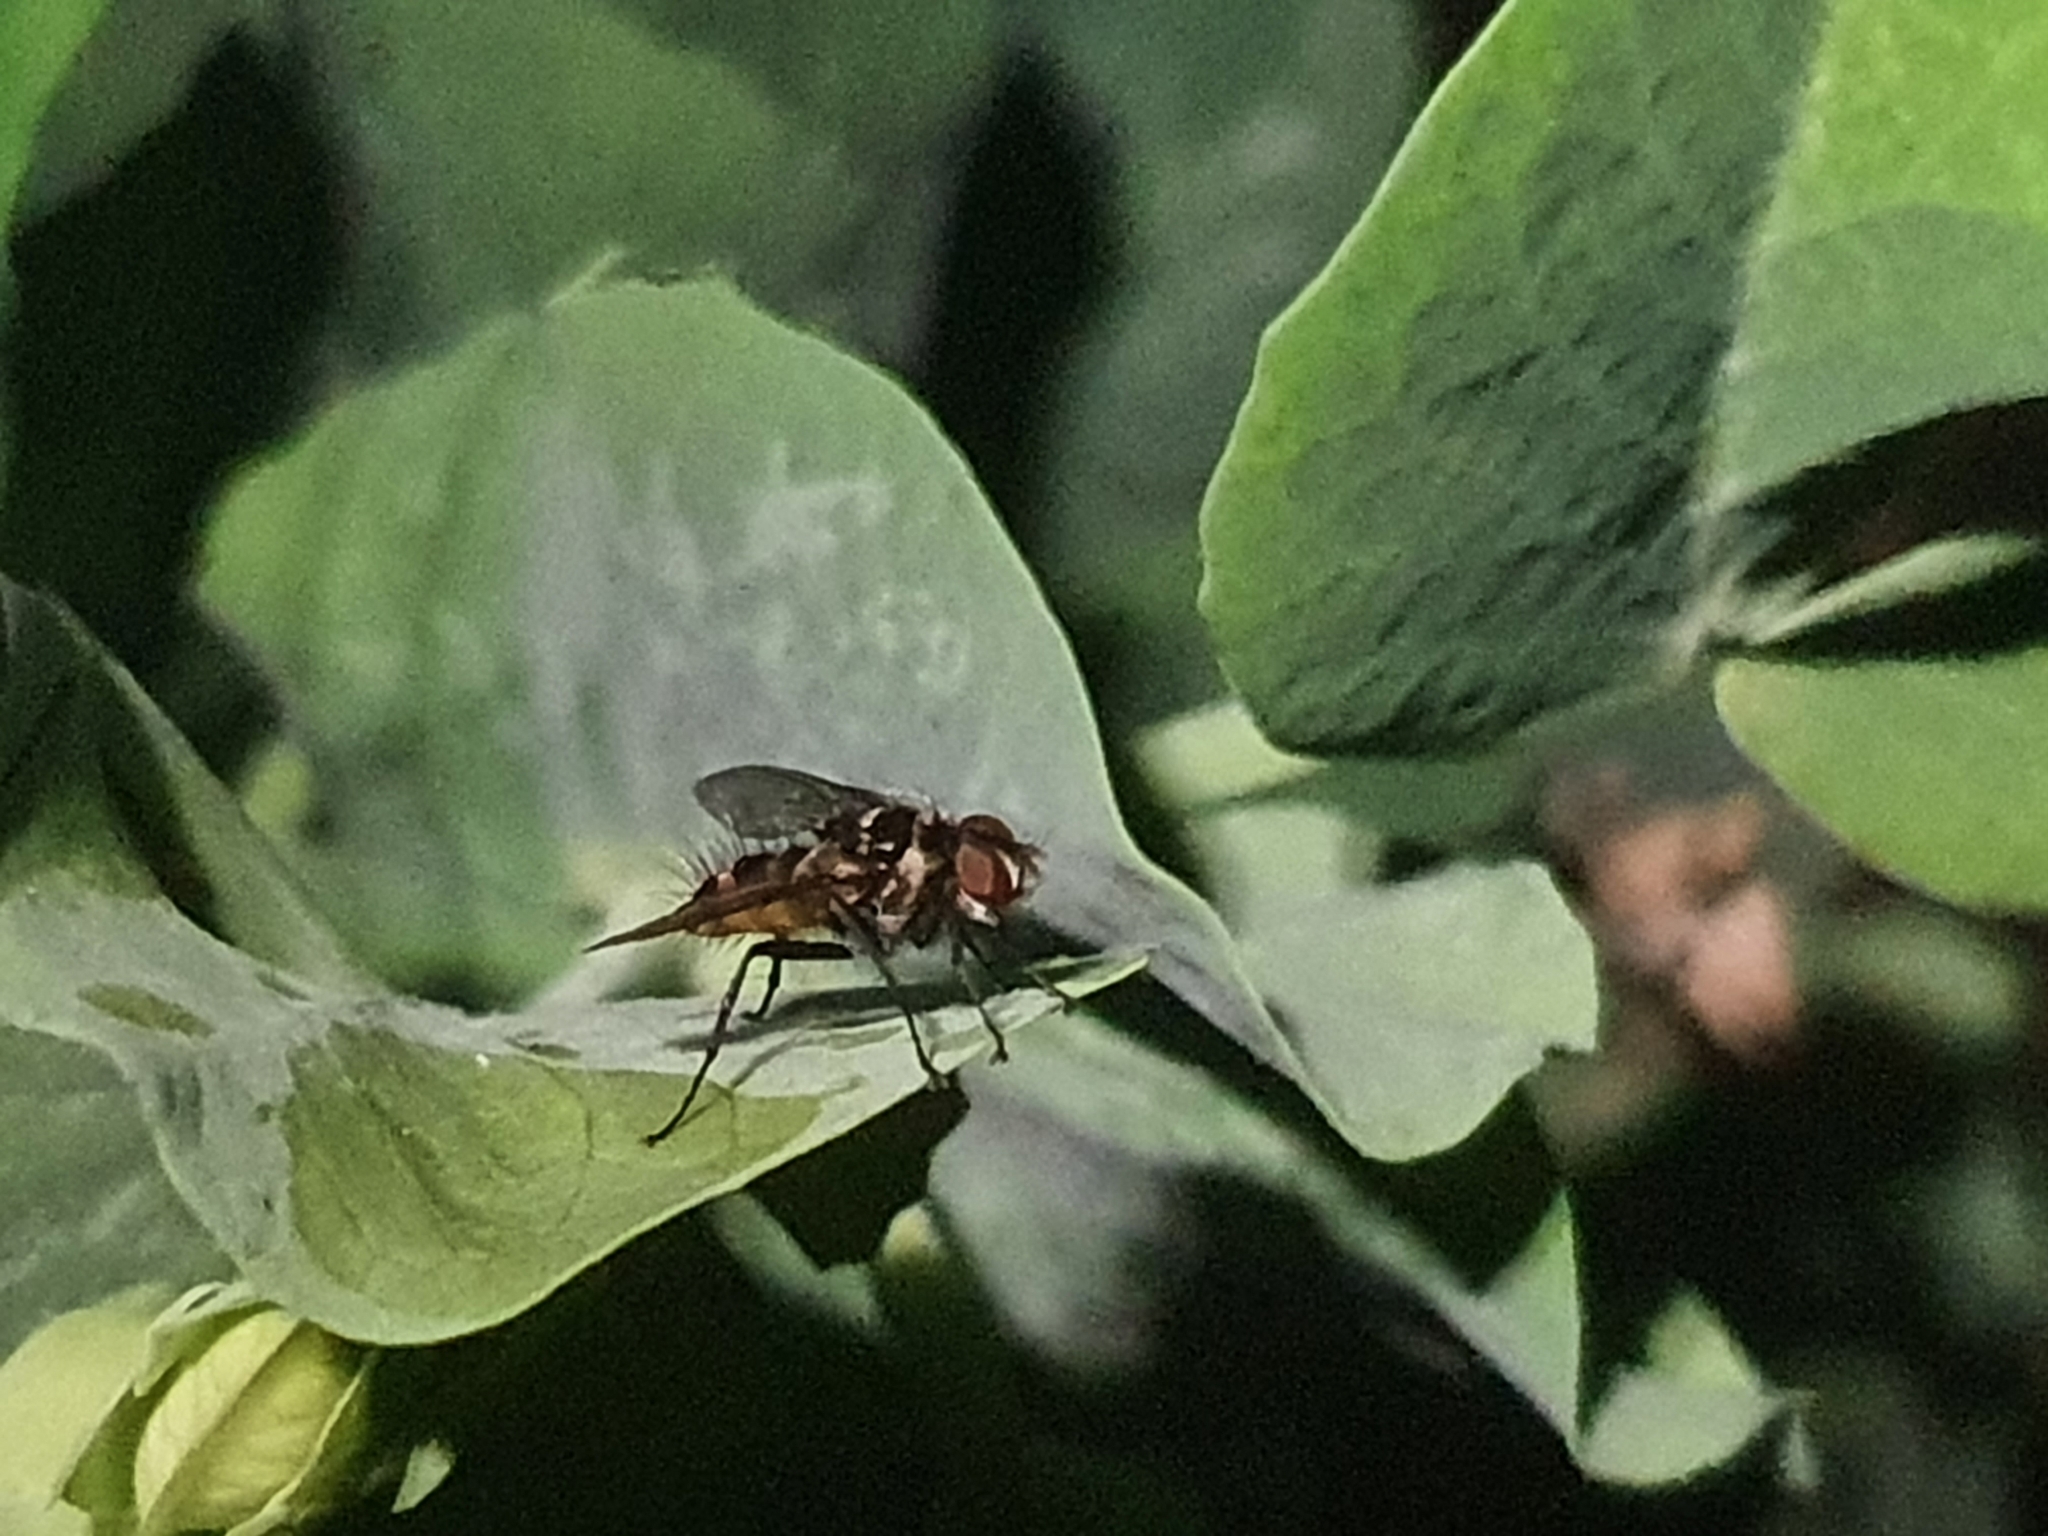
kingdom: Animalia
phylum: Arthropoda
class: Insecta
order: Diptera
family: Tachinidae
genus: Trigonospila
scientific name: Trigonospila brevifacies
